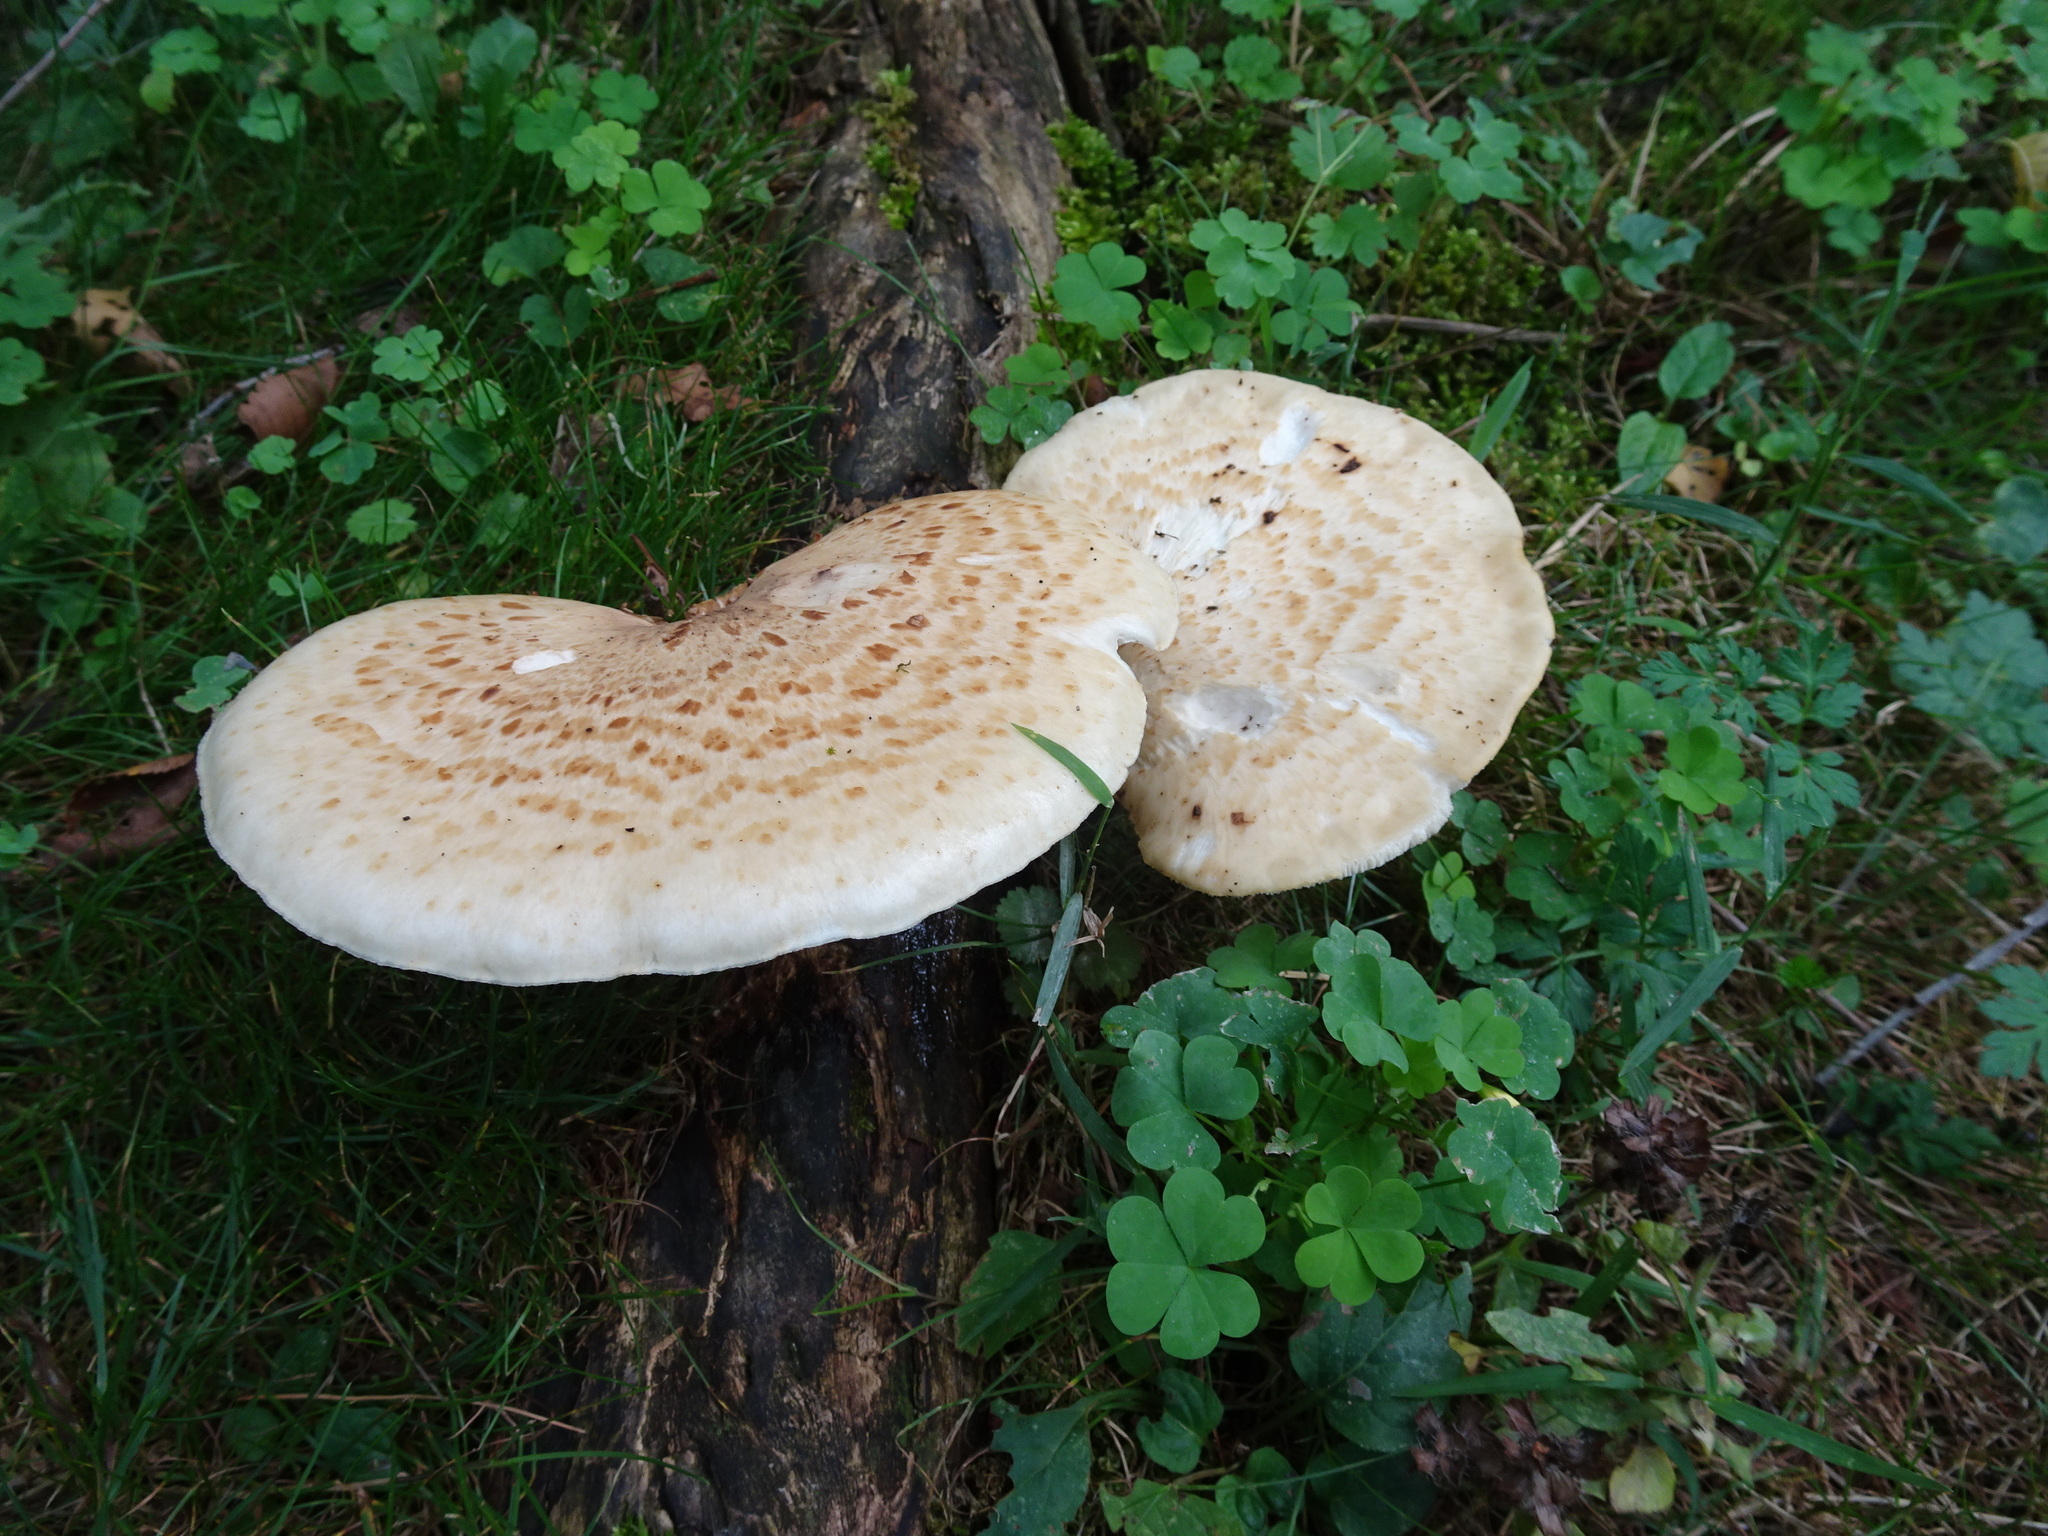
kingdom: Fungi
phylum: Basidiomycota
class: Agaricomycetes
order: Polyporales
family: Polyporaceae
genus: Cerioporus
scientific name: Cerioporus squamosus
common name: Dryad's saddle
